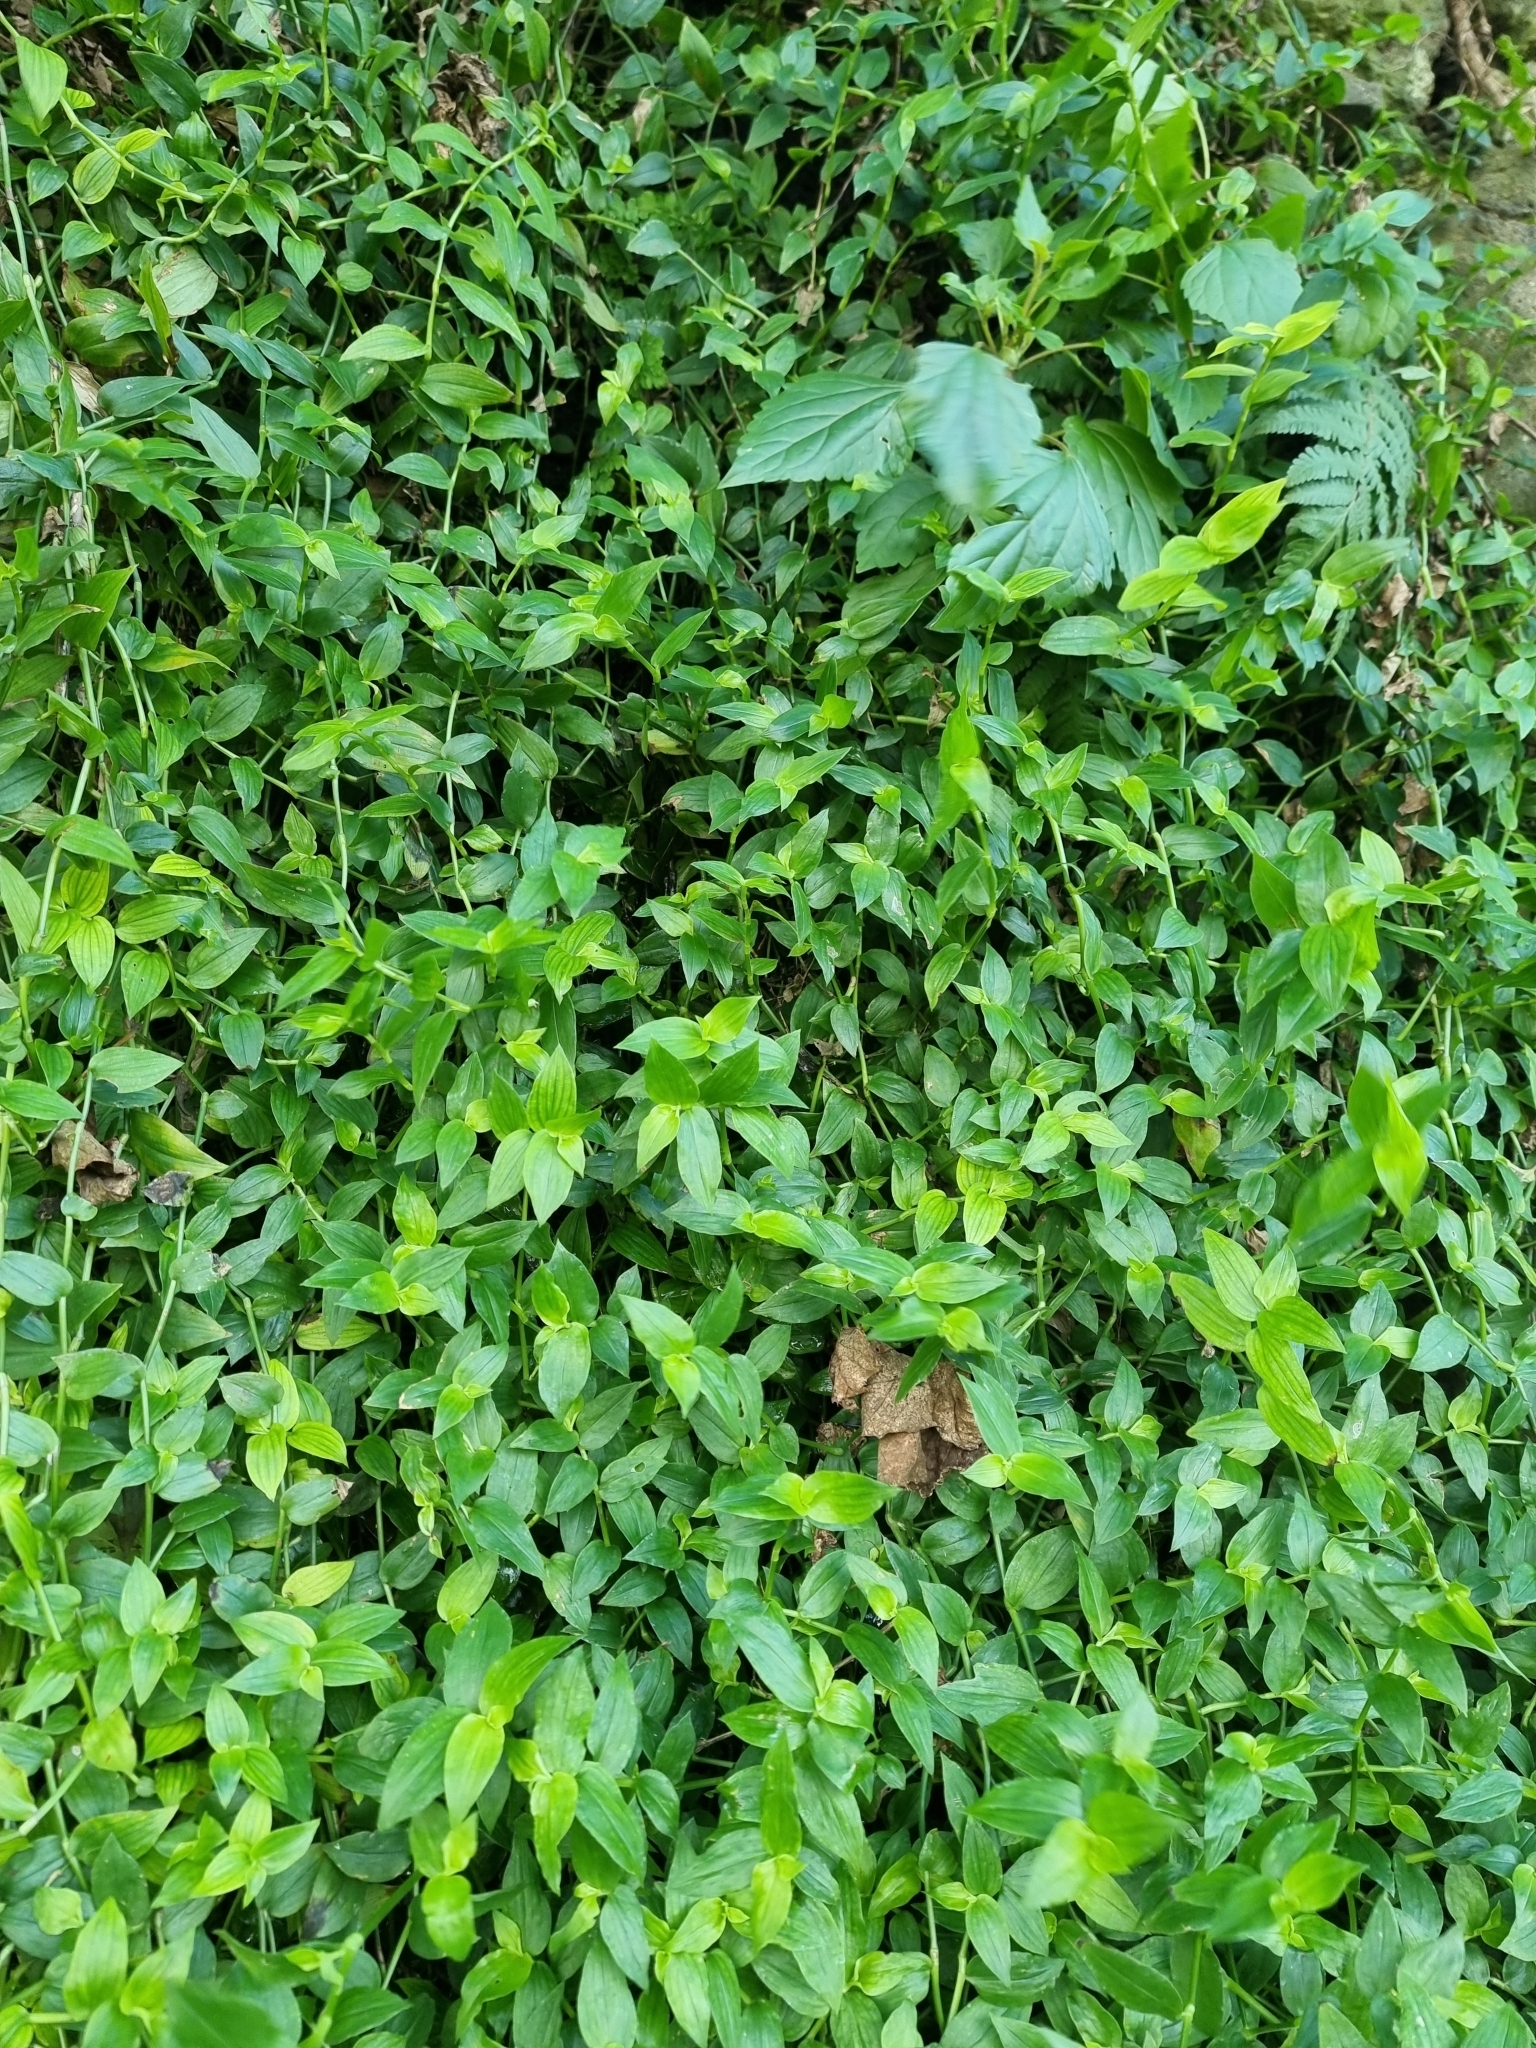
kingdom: Plantae
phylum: Tracheophyta
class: Liliopsida
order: Commelinales
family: Commelinaceae
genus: Tradescantia
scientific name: Tradescantia fluminensis
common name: Wandering-jew
